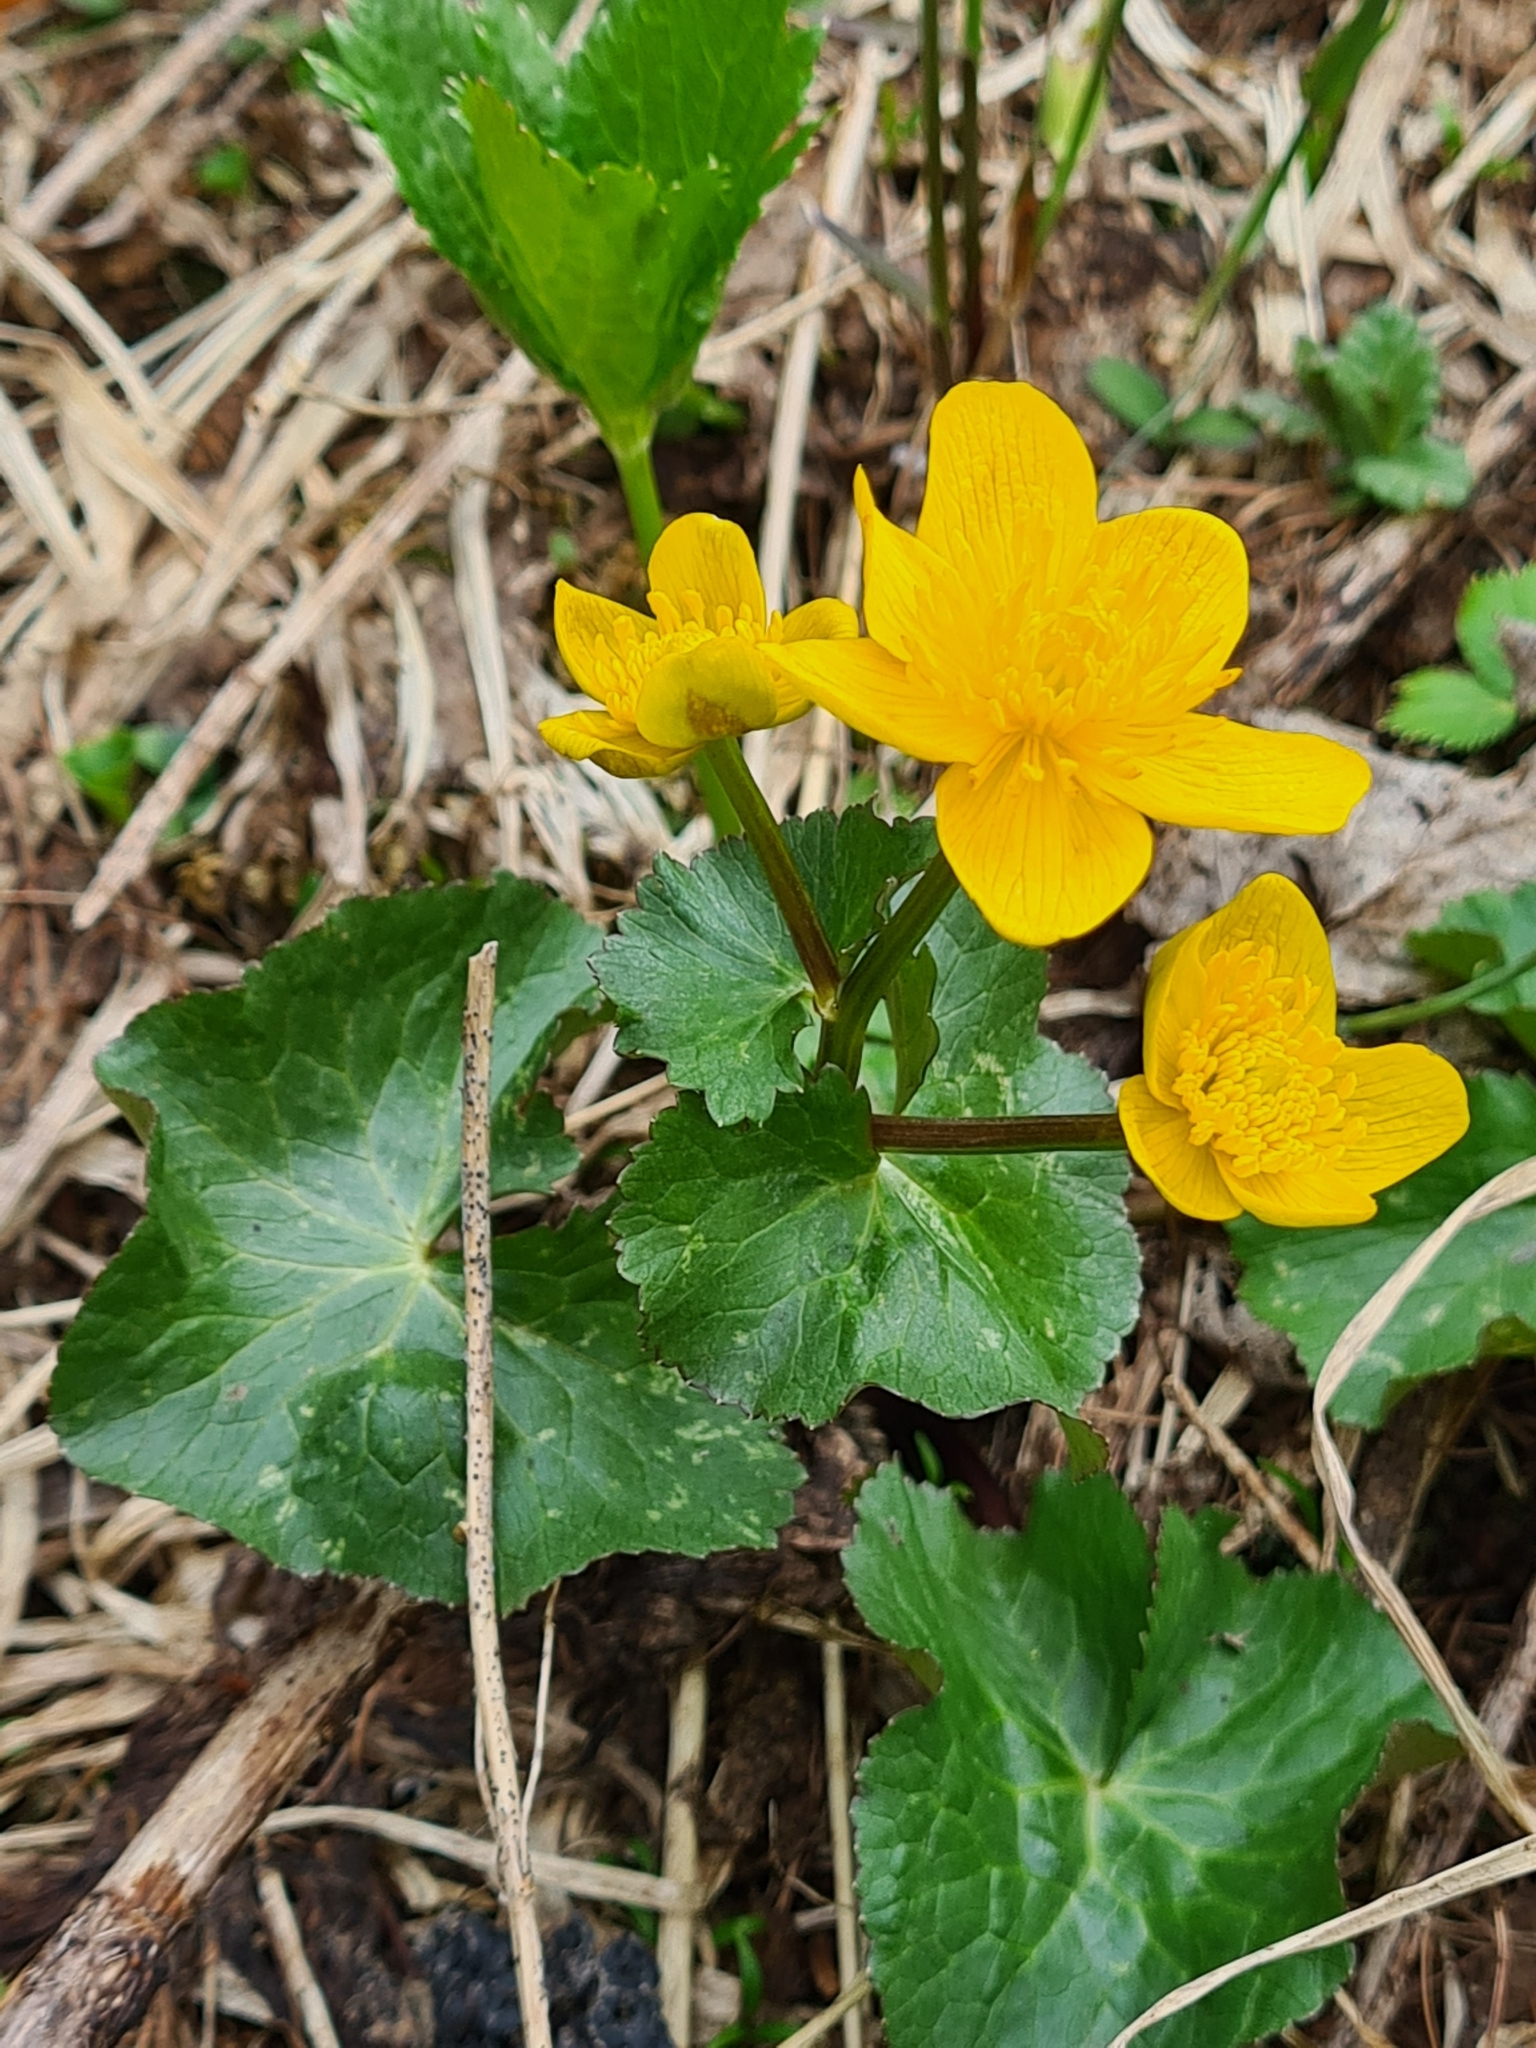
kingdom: Plantae
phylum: Tracheophyta
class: Magnoliopsida
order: Ranunculales
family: Ranunculaceae
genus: Caltha
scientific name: Caltha palustris
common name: Marsh marigold
